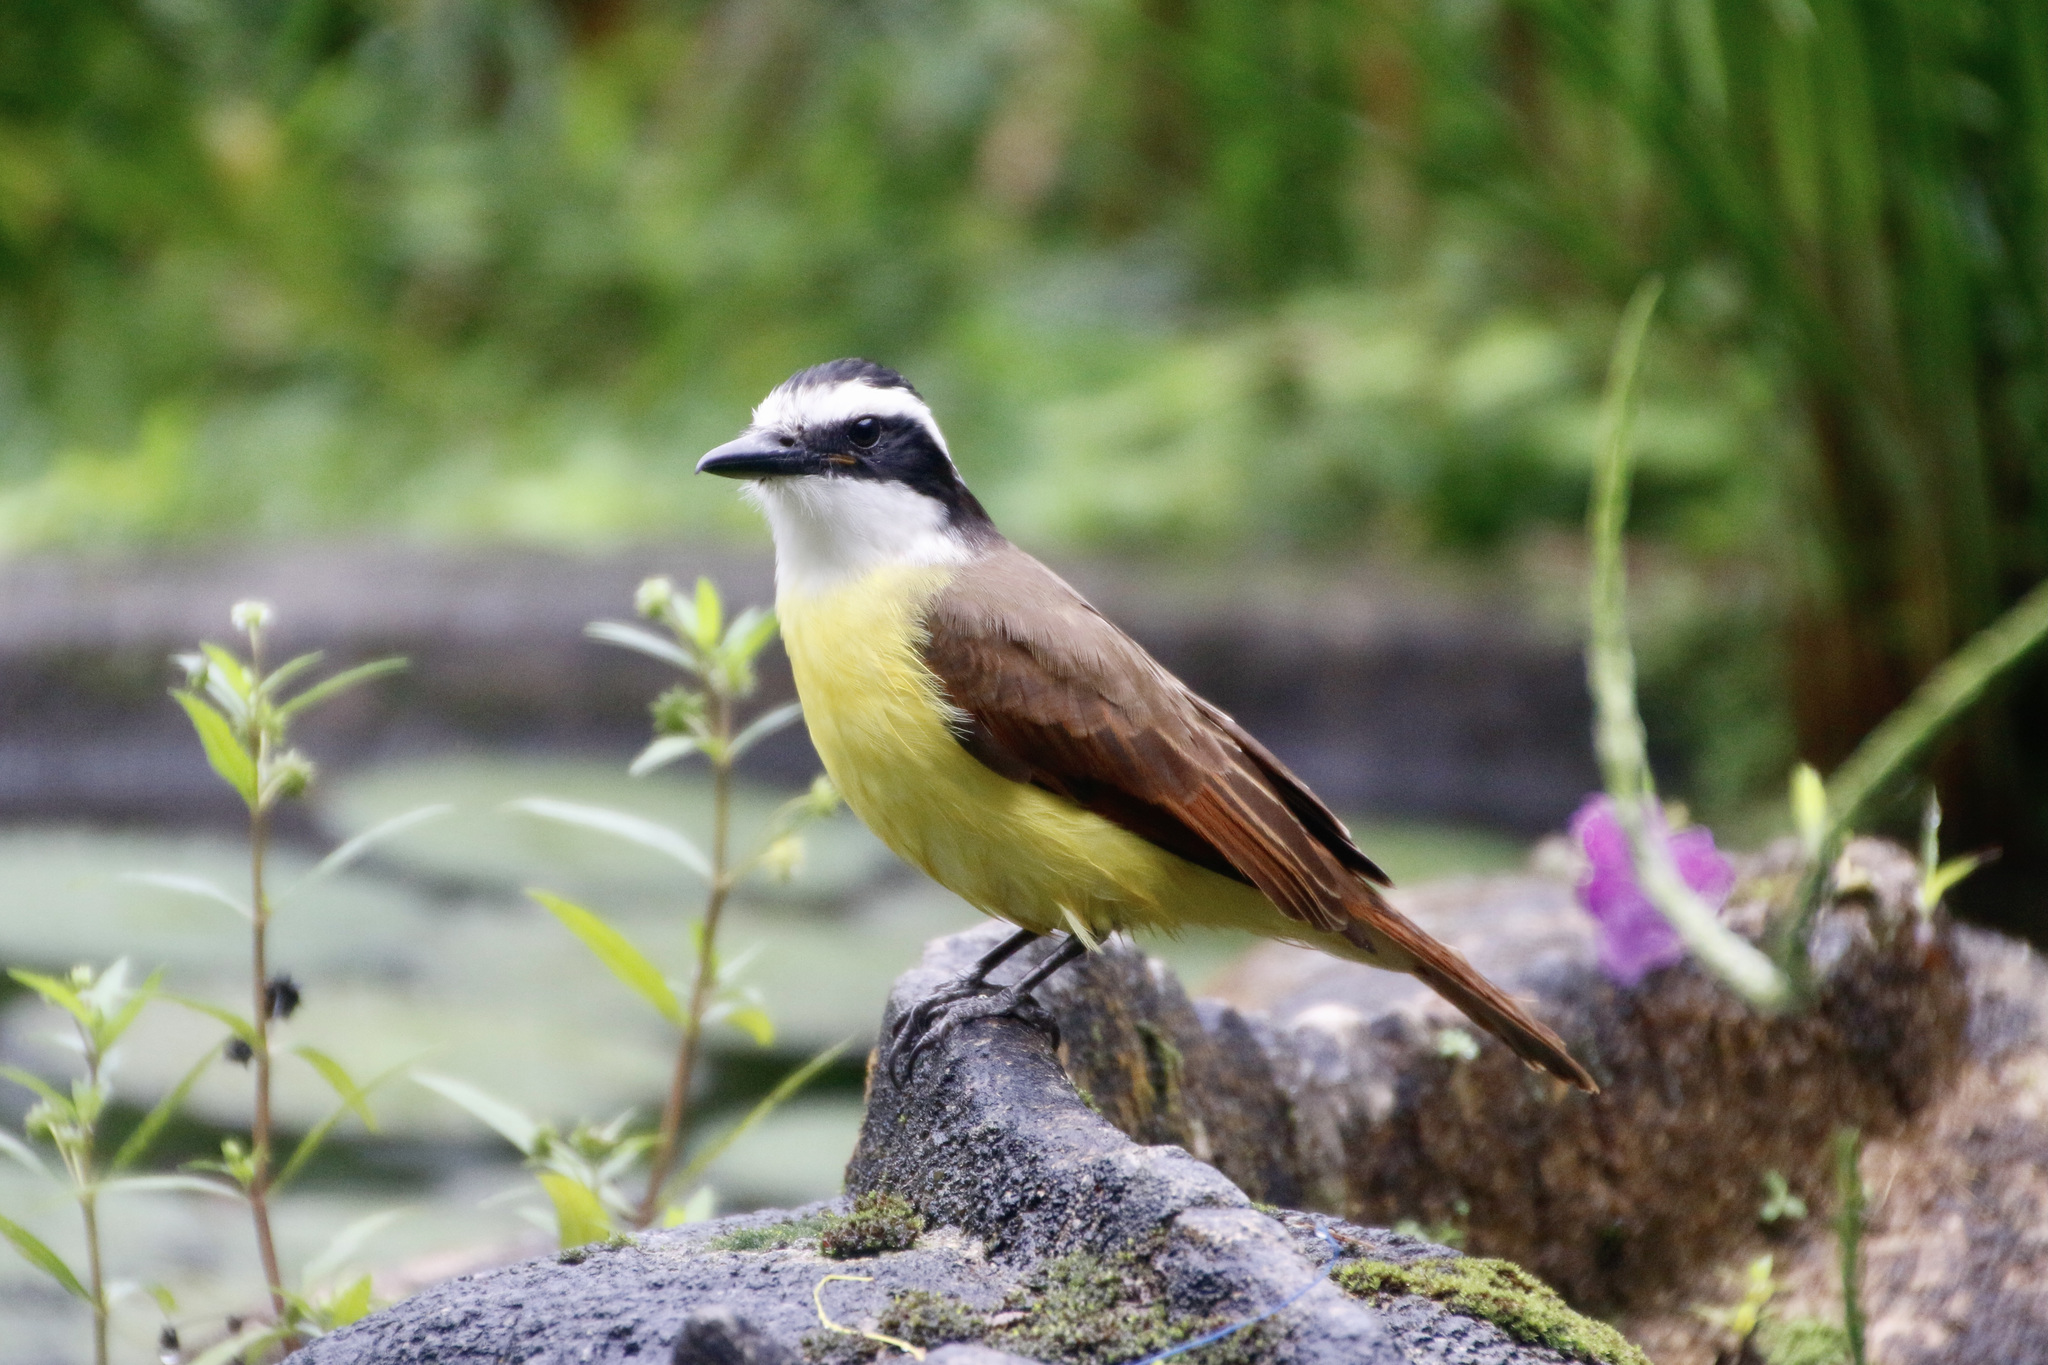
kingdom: Animalia
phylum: Chordata
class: Aves
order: Passeriformes
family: Tyrannidae
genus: Pitangus
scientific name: Pitangus sulphuratus
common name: Great kiskadee
